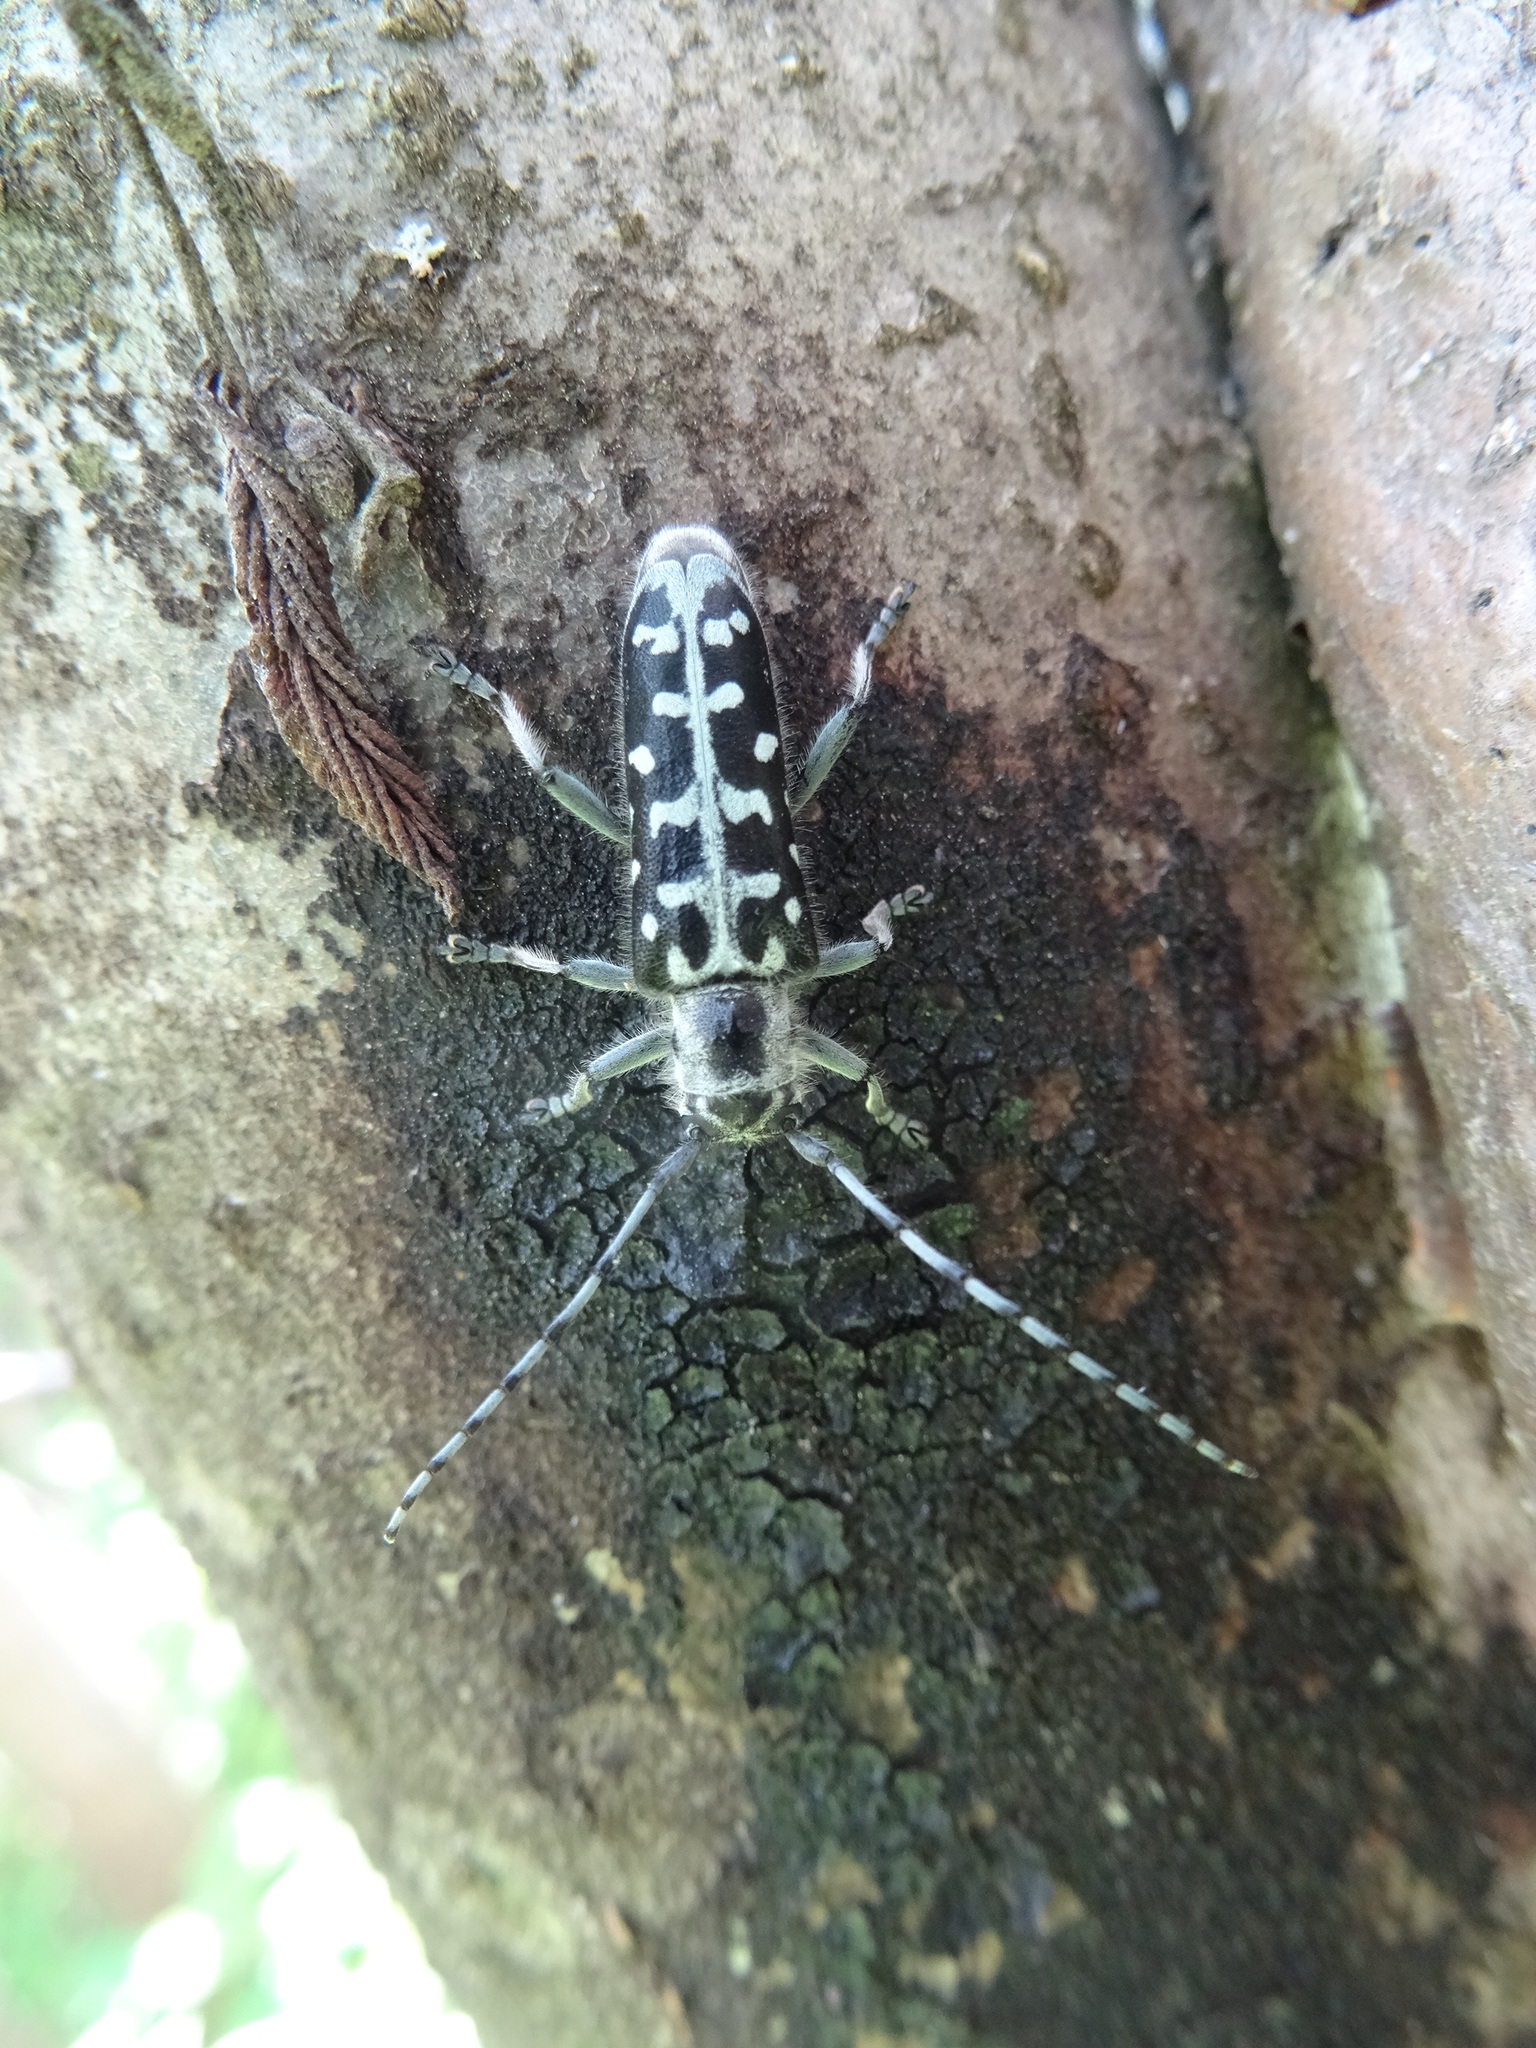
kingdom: Animalia
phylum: Arthropoda
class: Insecta
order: Coleoptera
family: Cerambycidae
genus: Saperda
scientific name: Saperda scalaris
